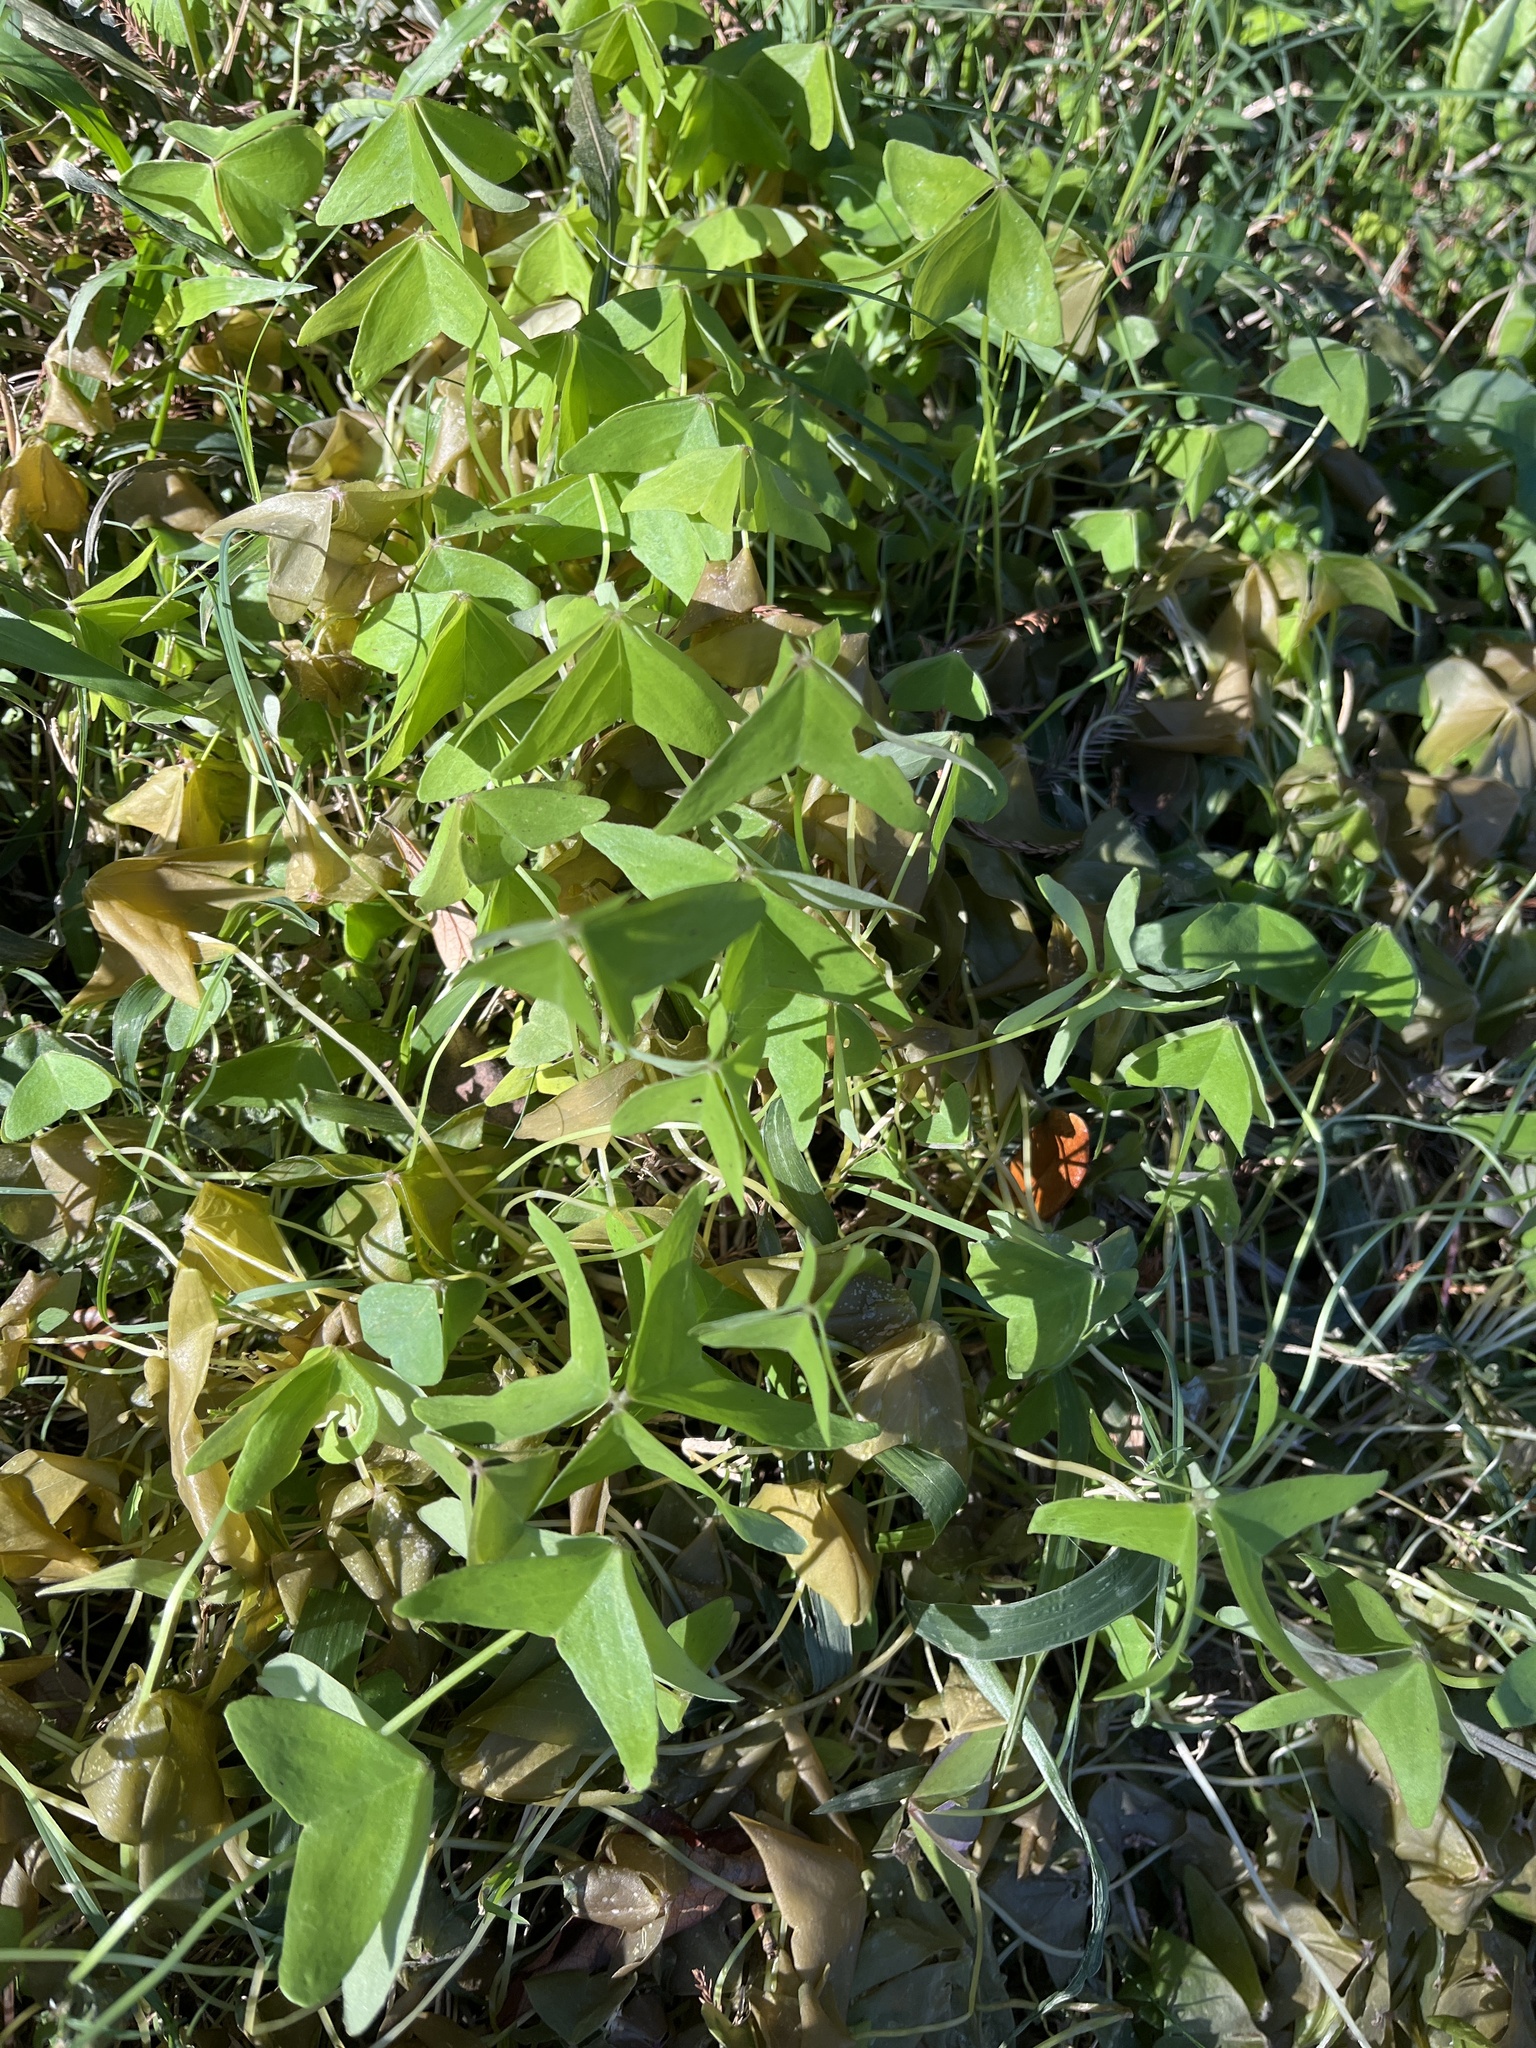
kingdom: Plantae
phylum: Tracheophyta
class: Magnoliopsida
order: Oxalidales
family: Oxalidaceae
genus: Oxalis
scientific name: Oxalis intermedia
